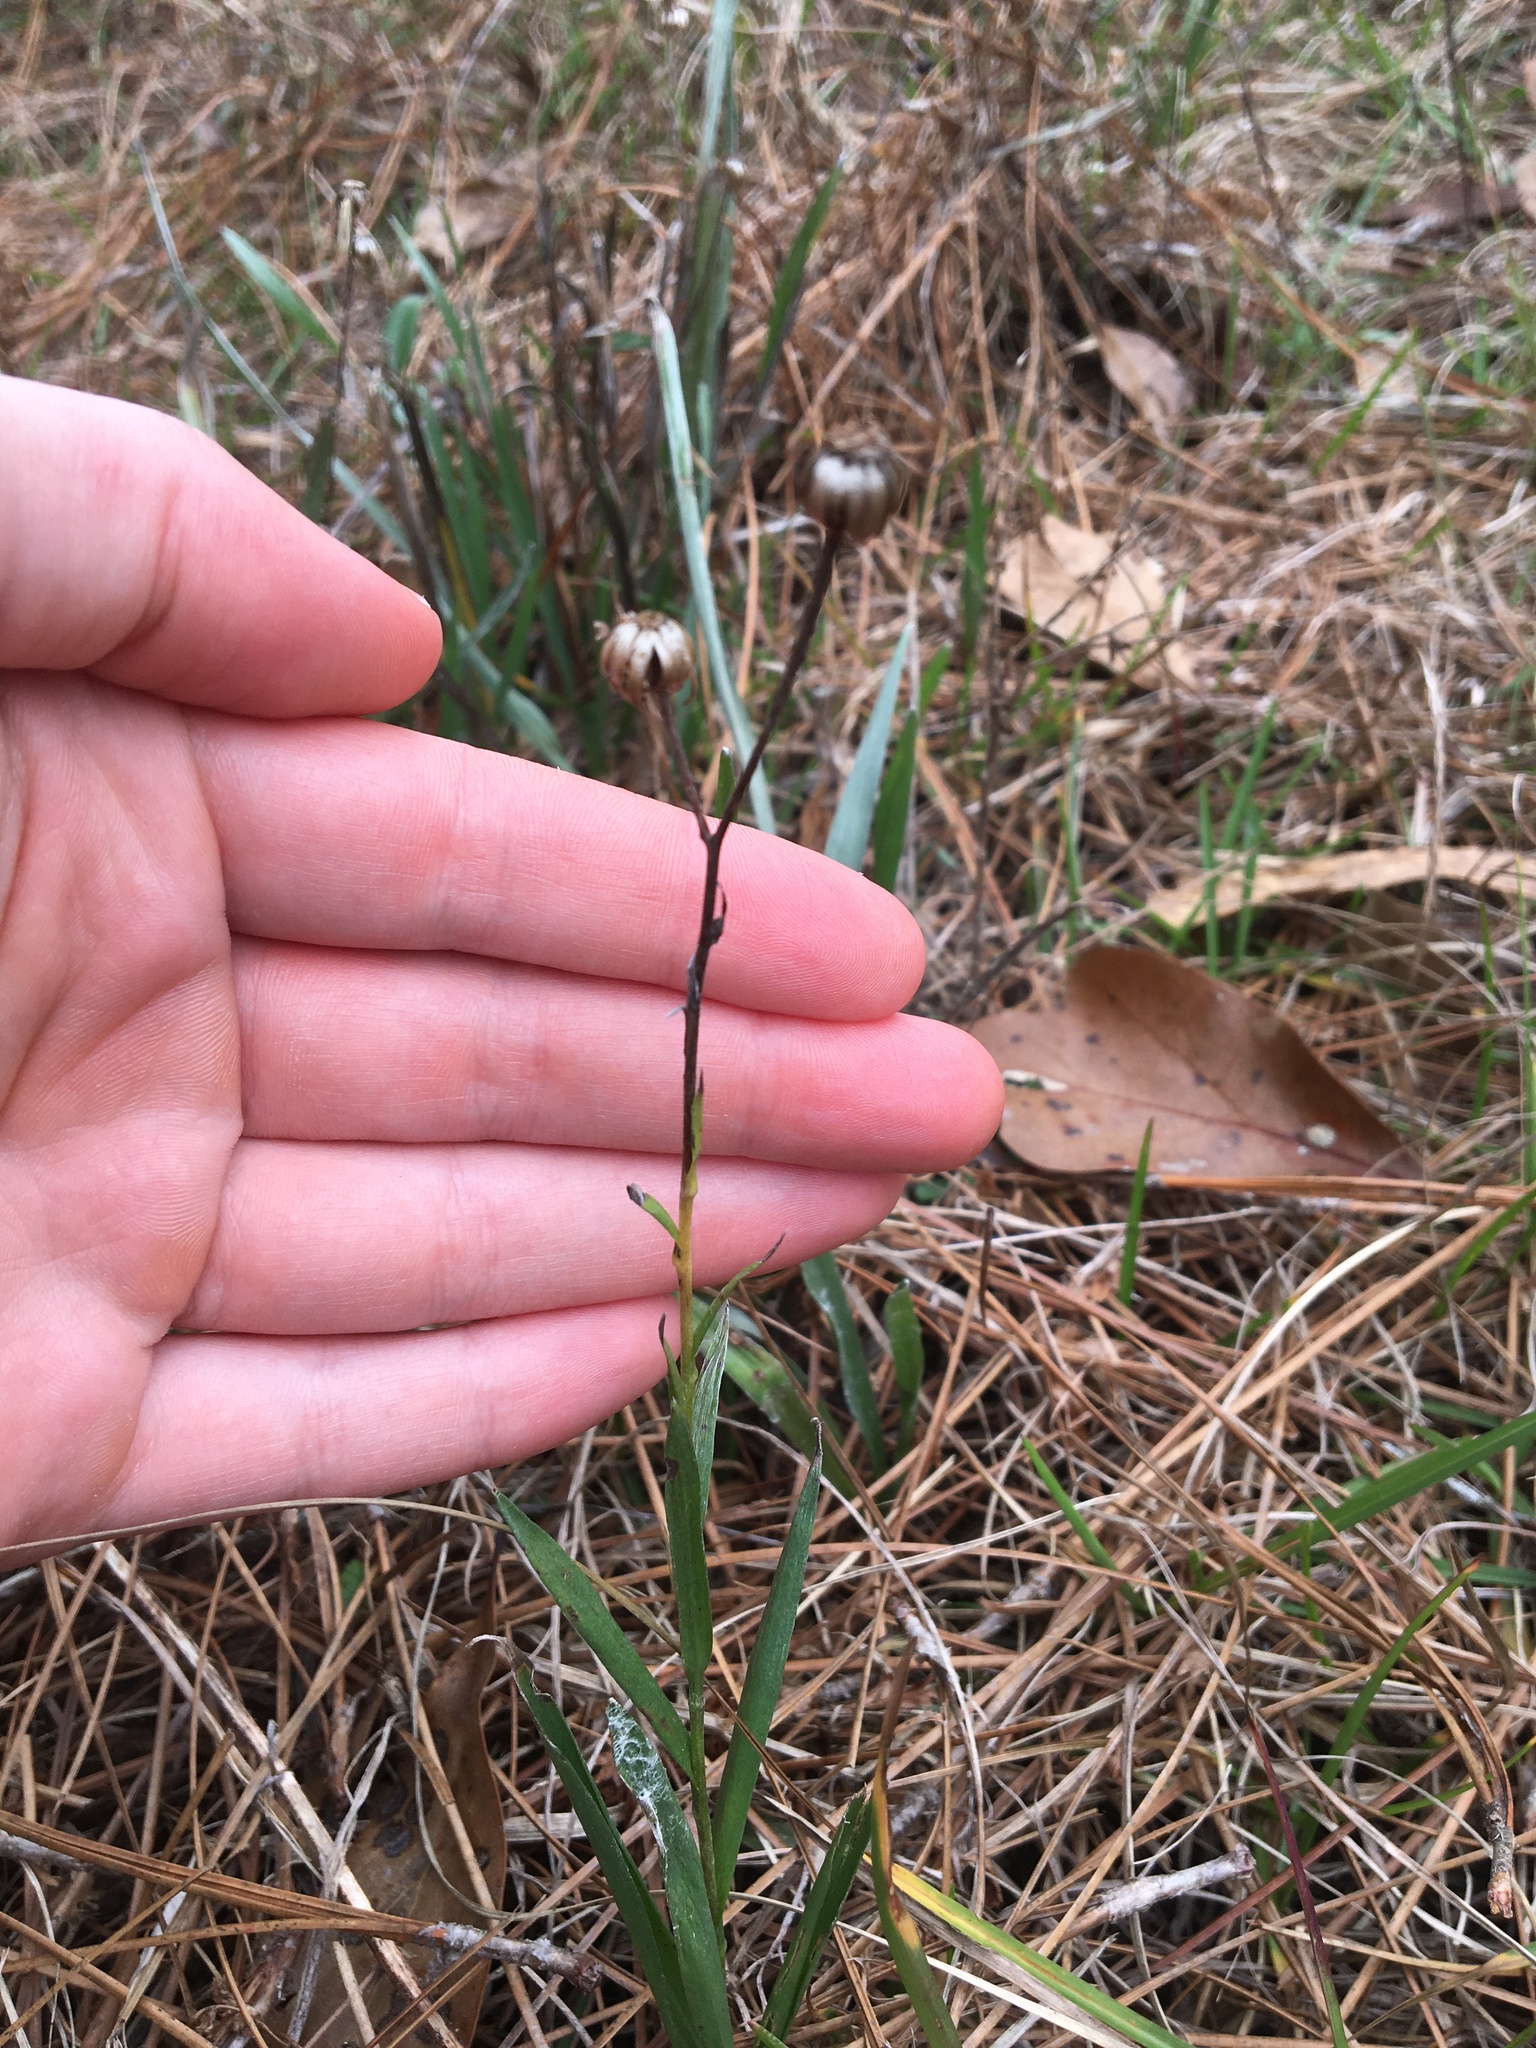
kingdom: Plantae
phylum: Tracheophyta
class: Magnoliopsida
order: Asterales
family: Asteraceae
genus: Pityopsis
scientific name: Pityopsis graminifolia
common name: Grass-leaf golden-aster
